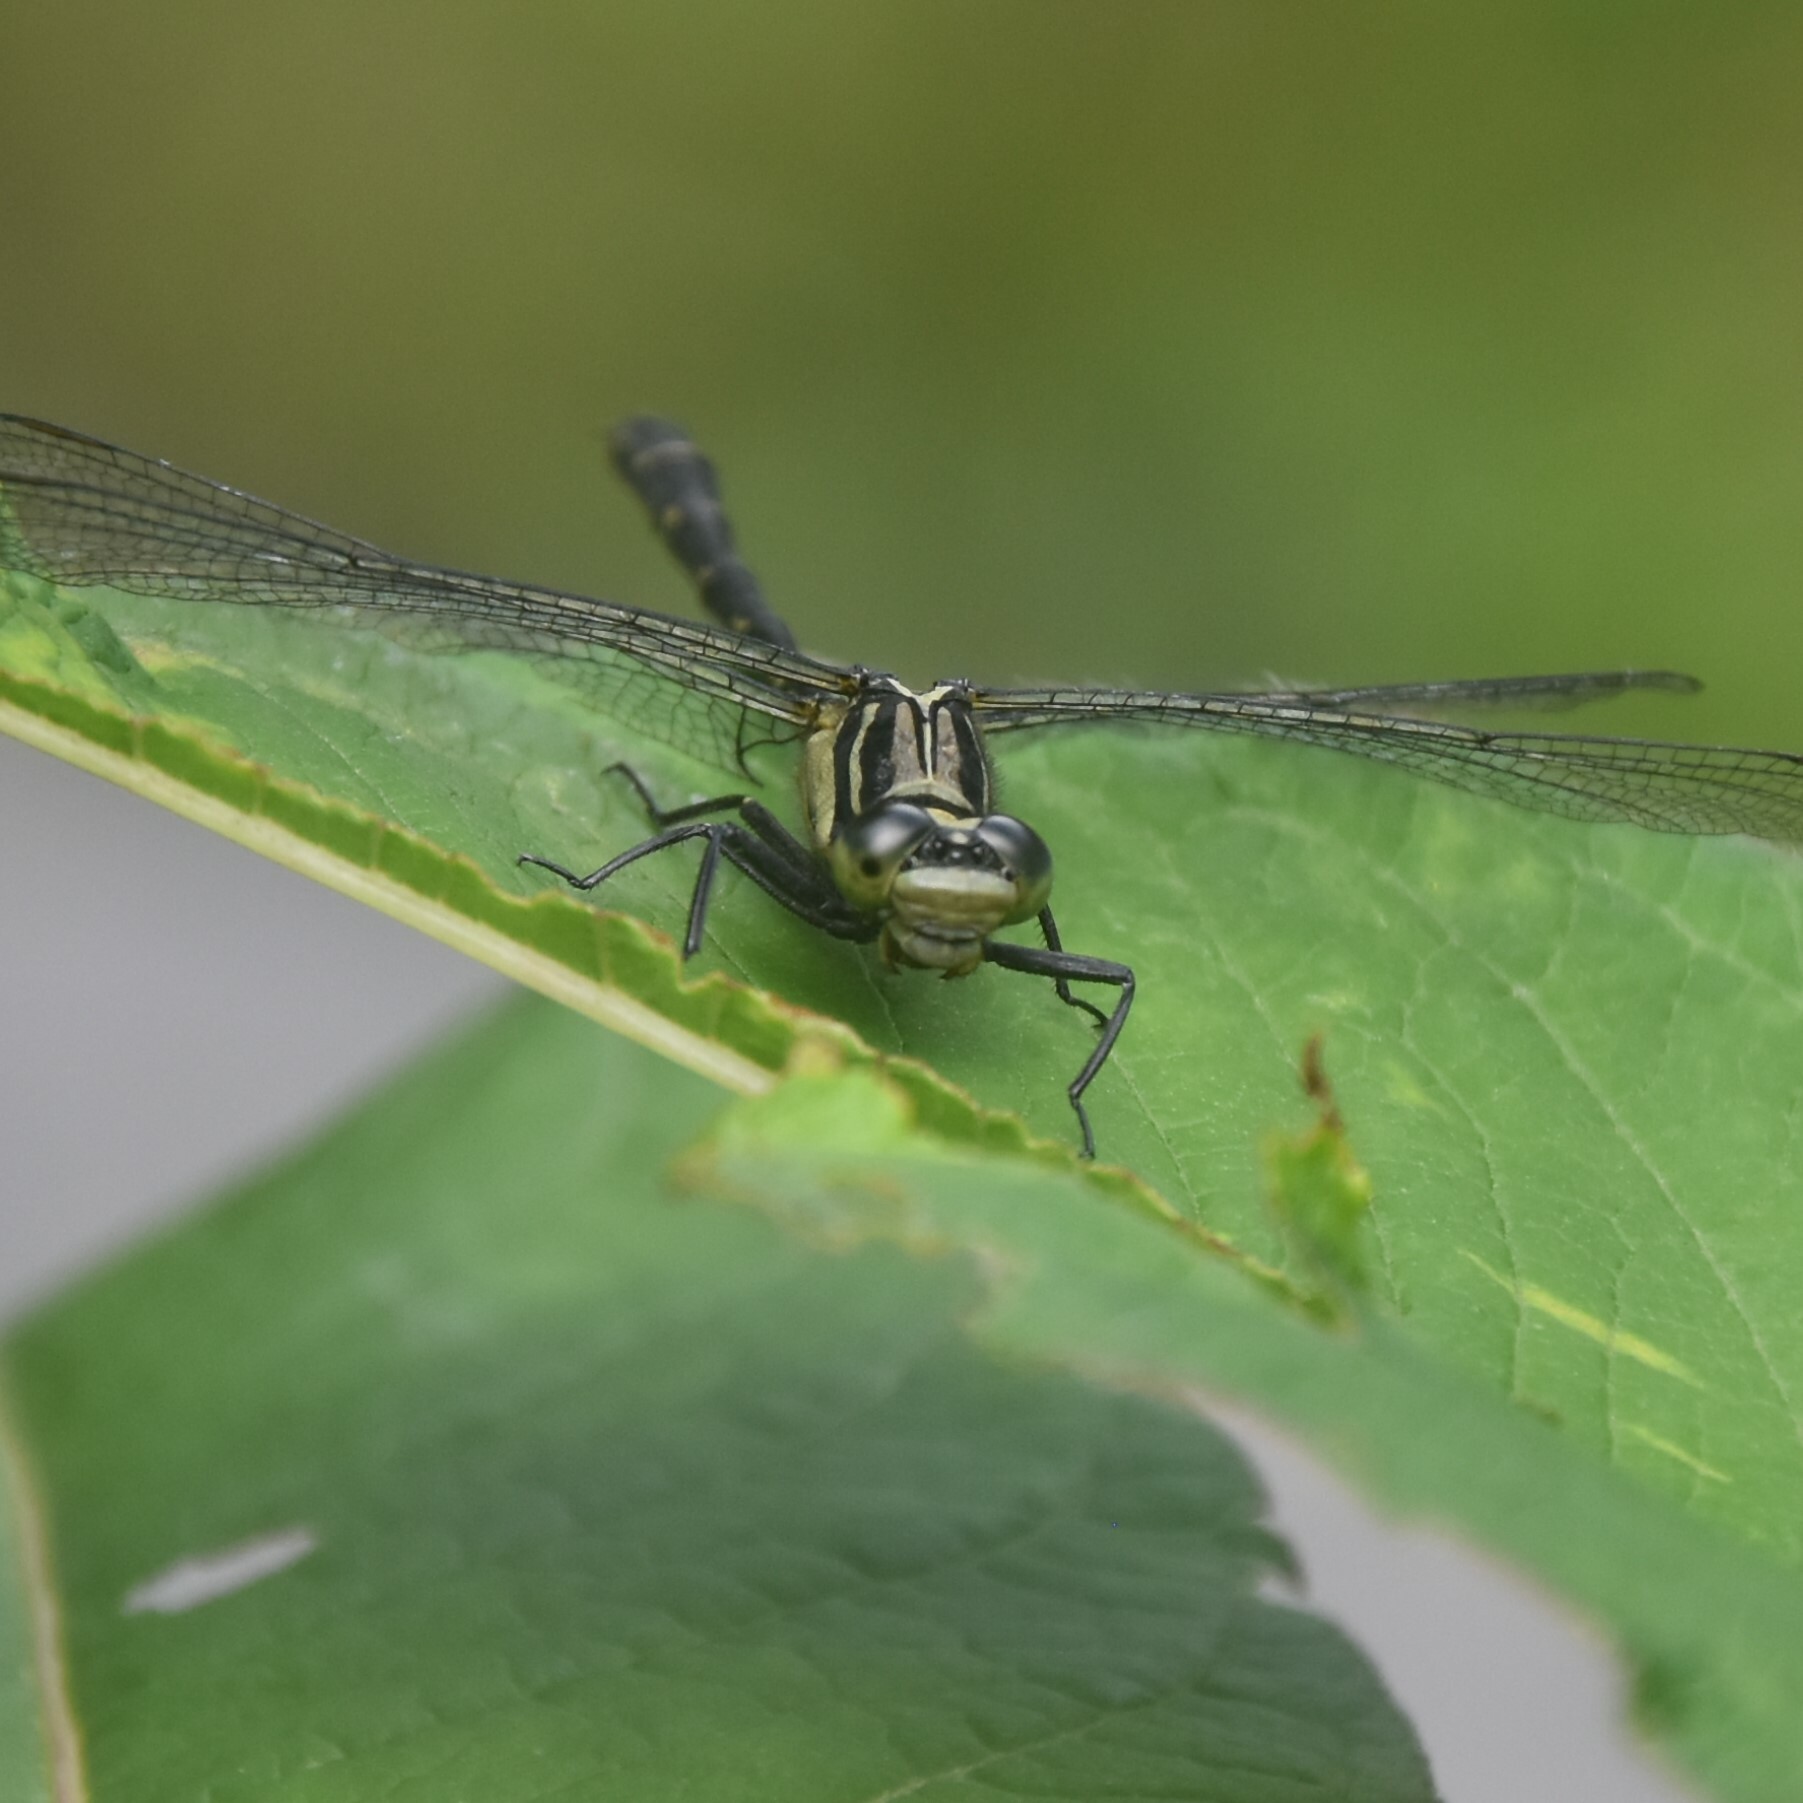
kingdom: Animalia
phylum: Arthropoda
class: Insecta
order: Odonata
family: Gomphidae
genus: Davidius
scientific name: Davidius aberrans
